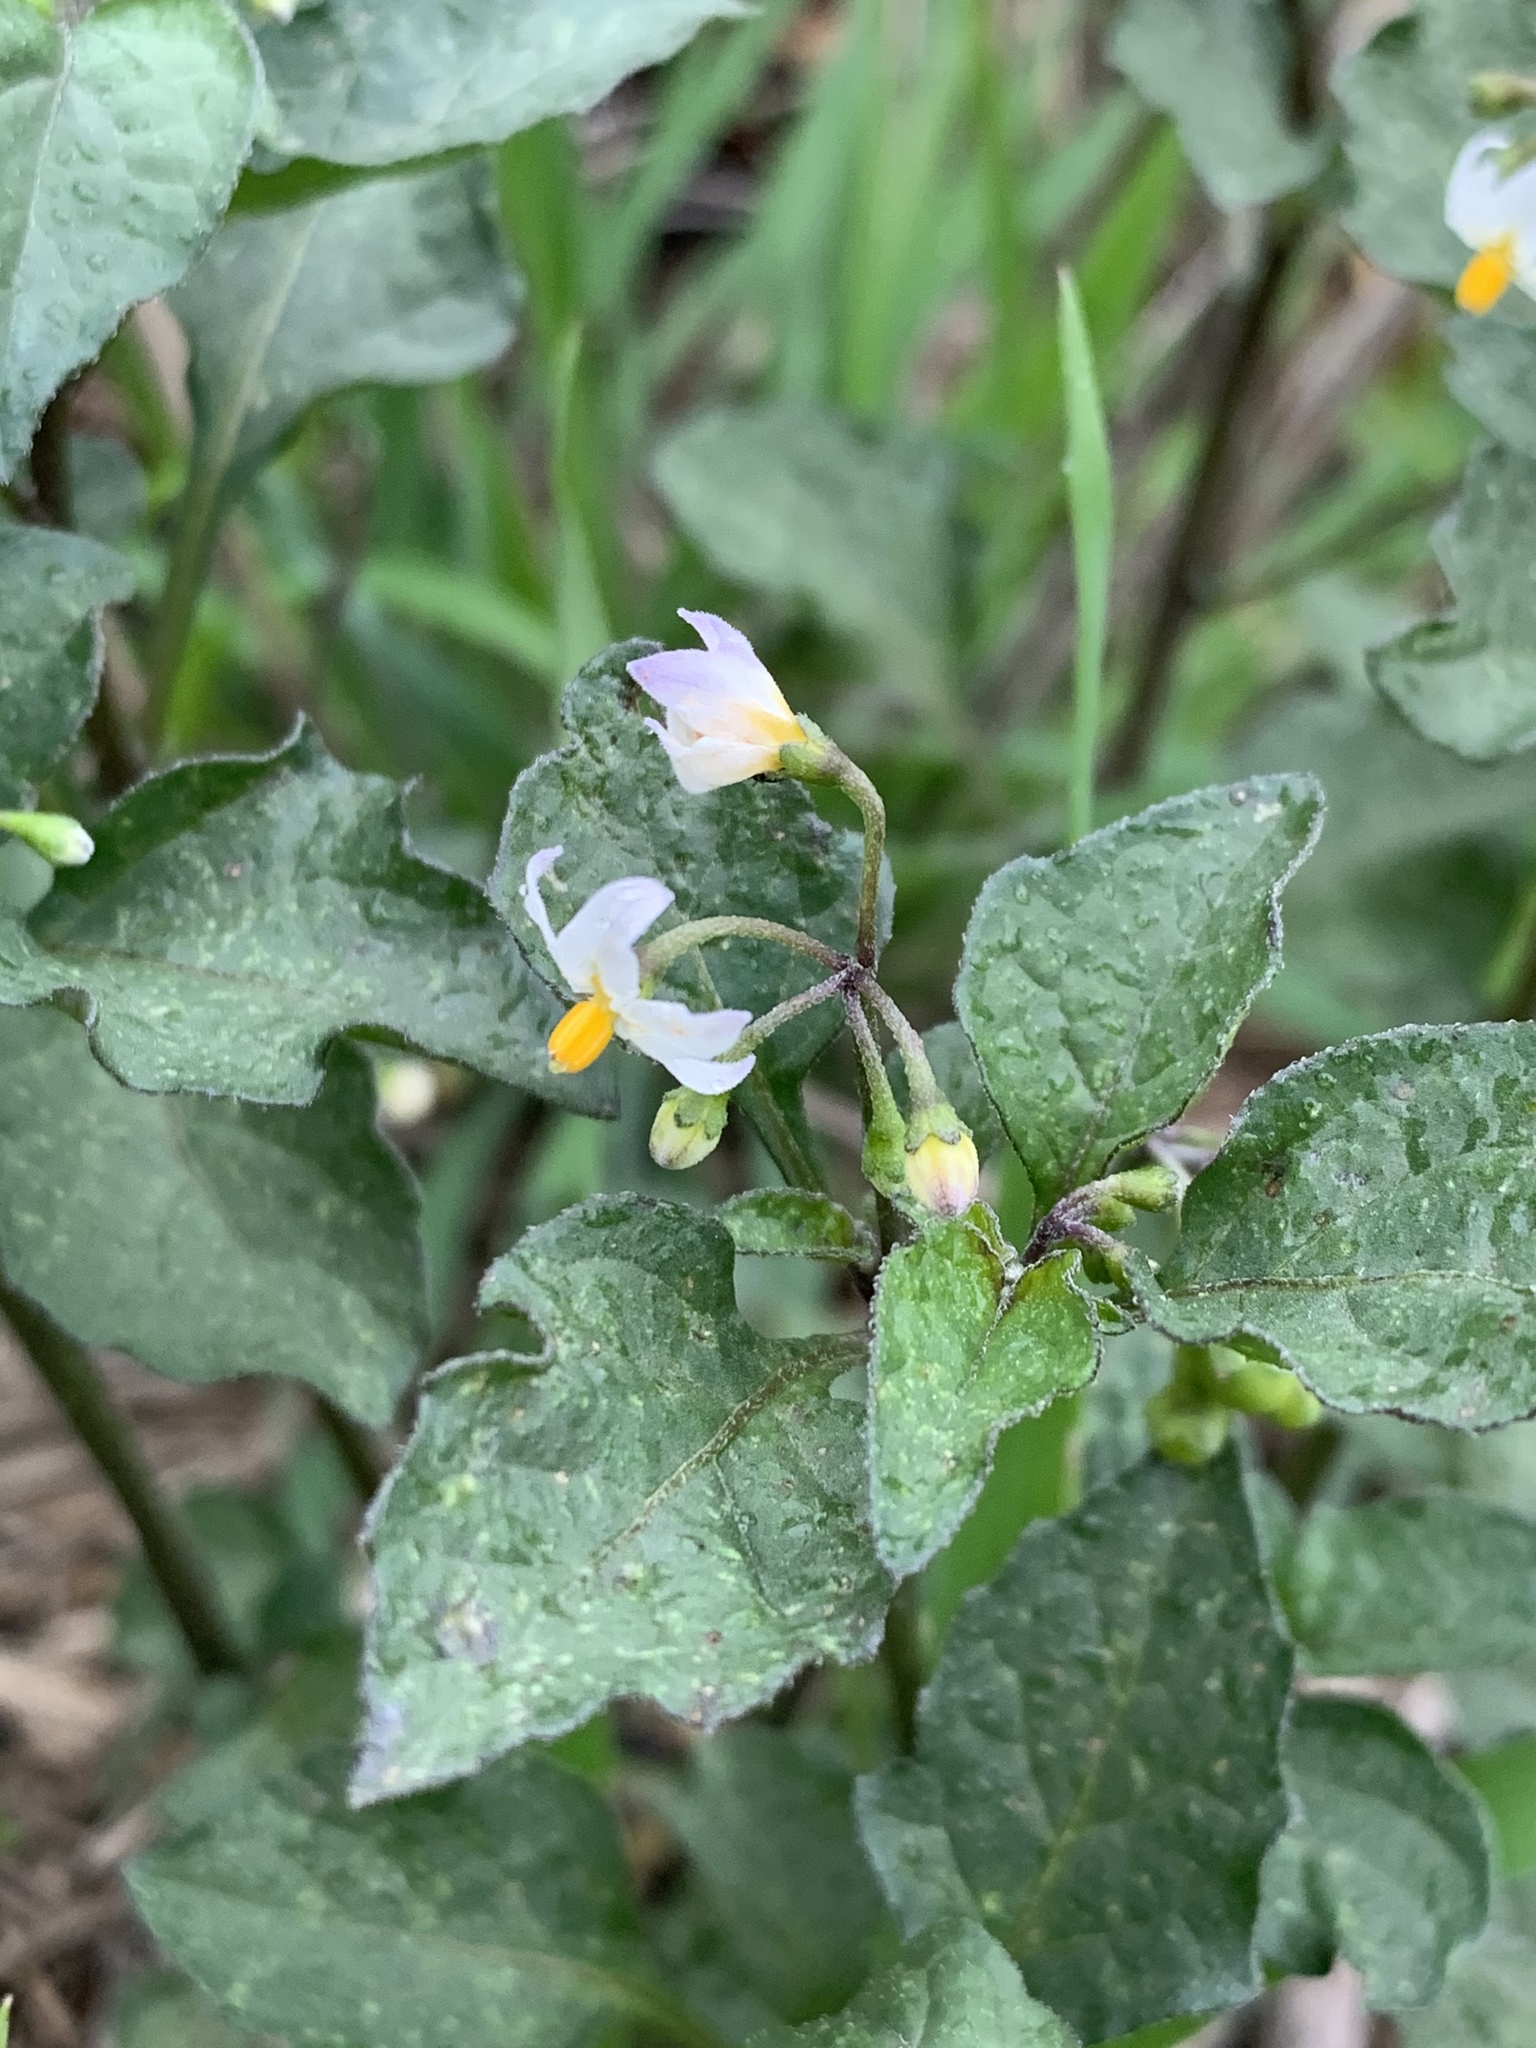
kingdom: Plantae
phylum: Tracheophyta
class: Magnoliopsida
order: Solanales
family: Solanaceae
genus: Solanum
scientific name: Solanum nigrum
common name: Black nightshade
